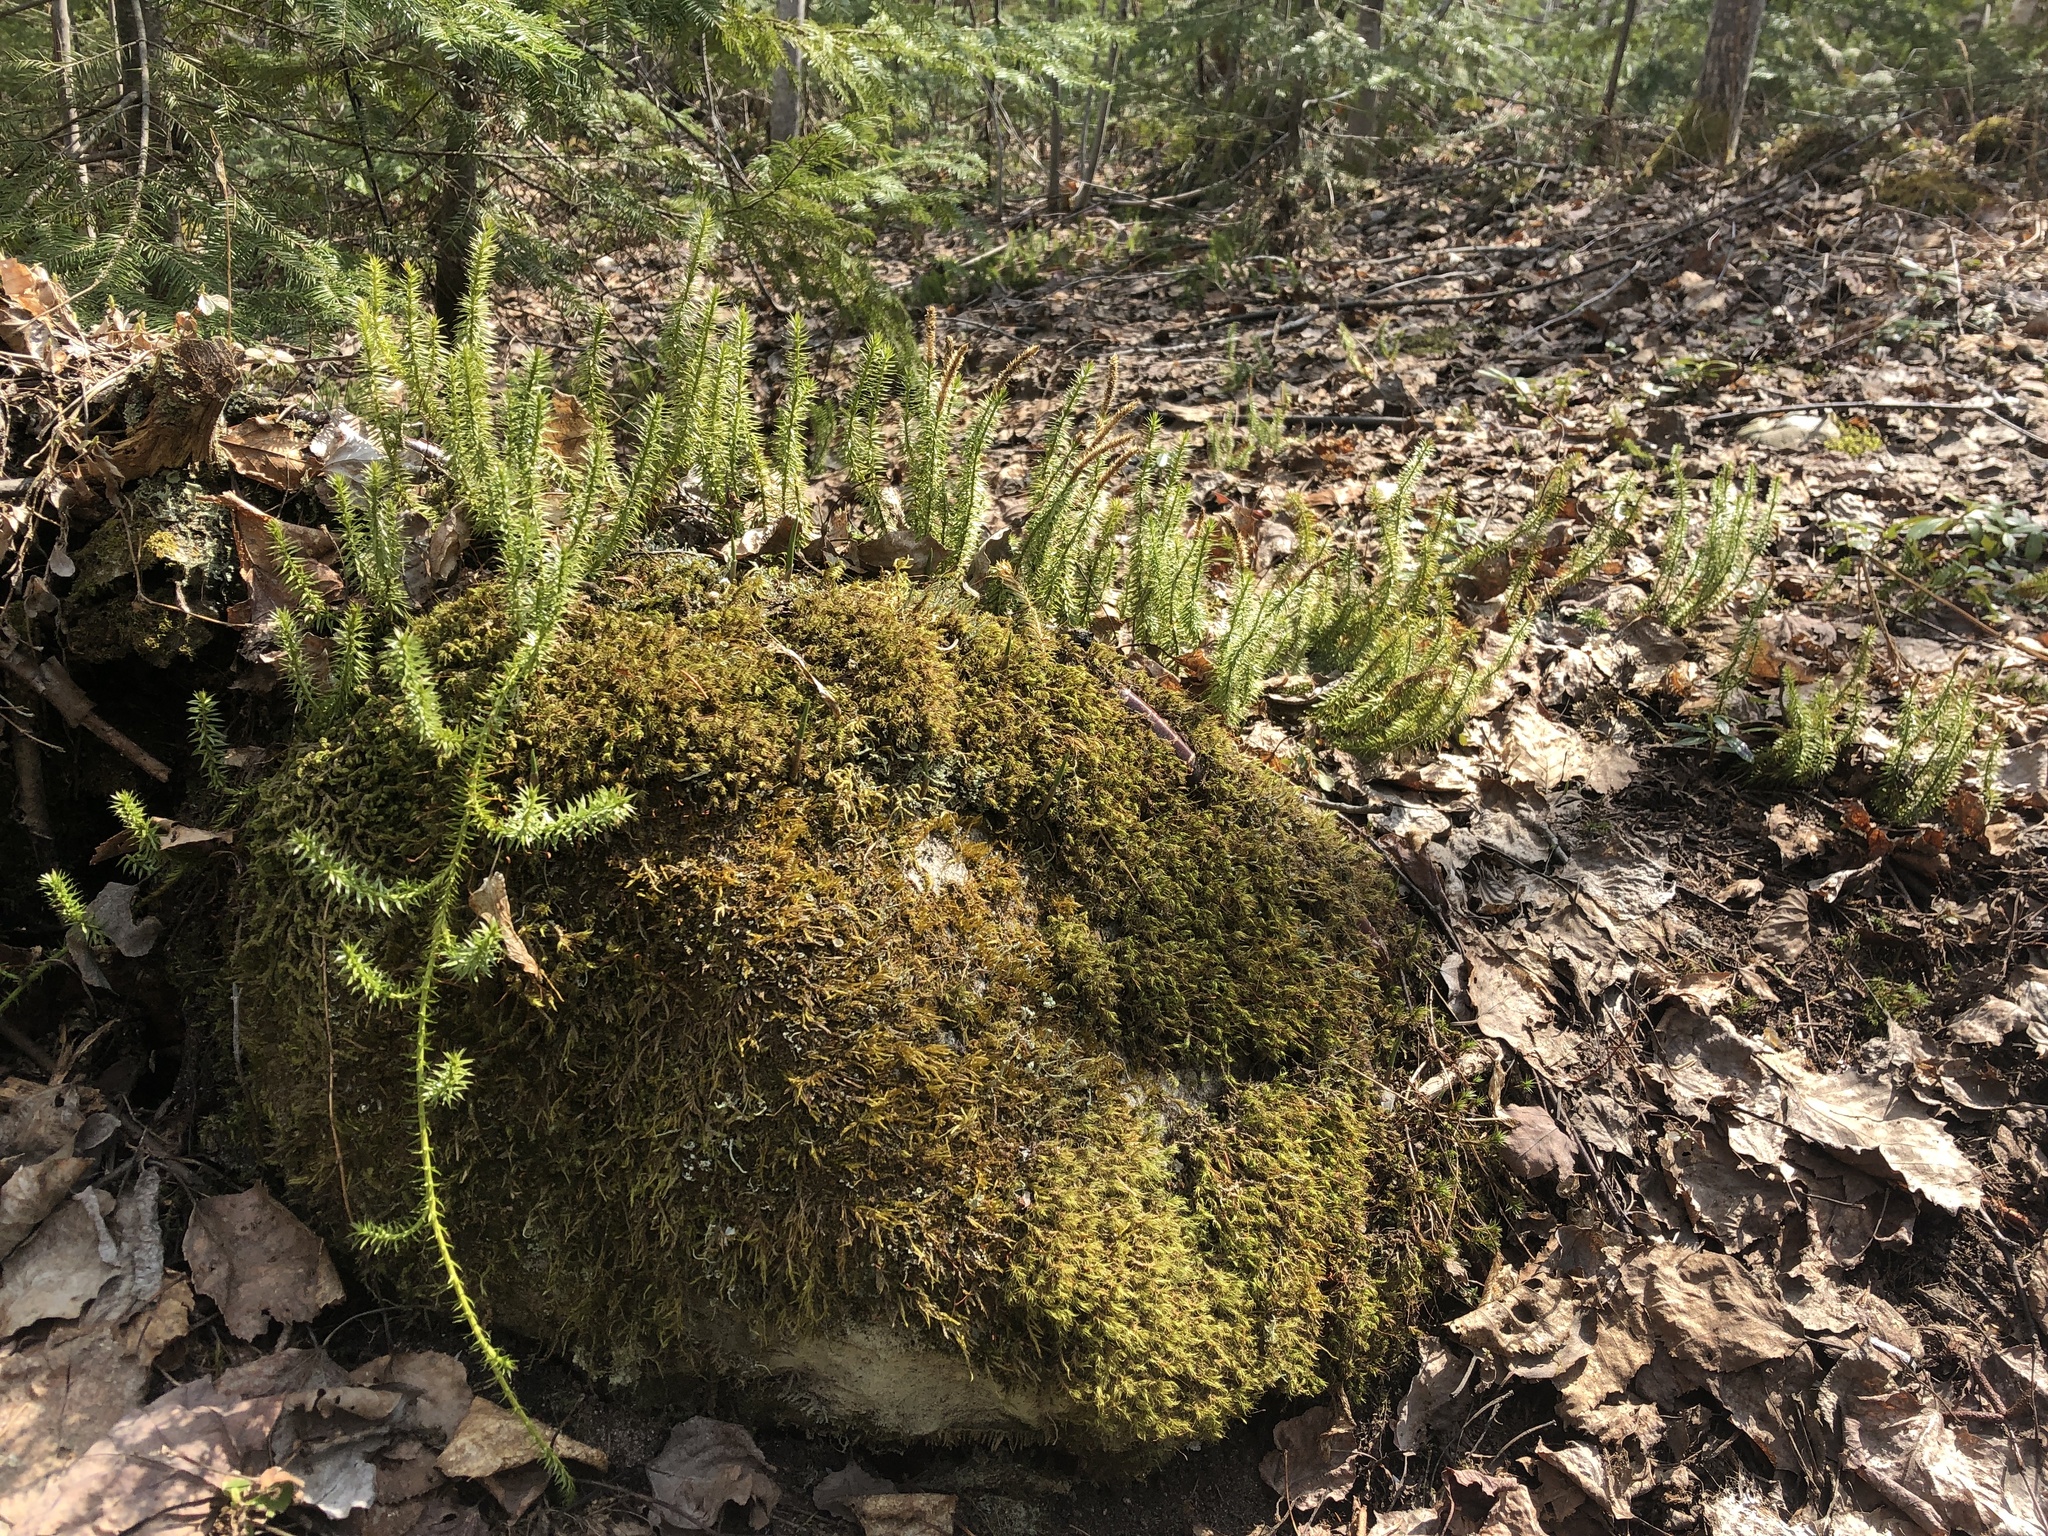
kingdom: Plantae
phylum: Tracheophyta
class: Lycopodiopsida
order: Lycopodiales
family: Lycopodiaceae
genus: Spinulum
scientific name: Spinulum annotinum
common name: Interrupted club-moss
